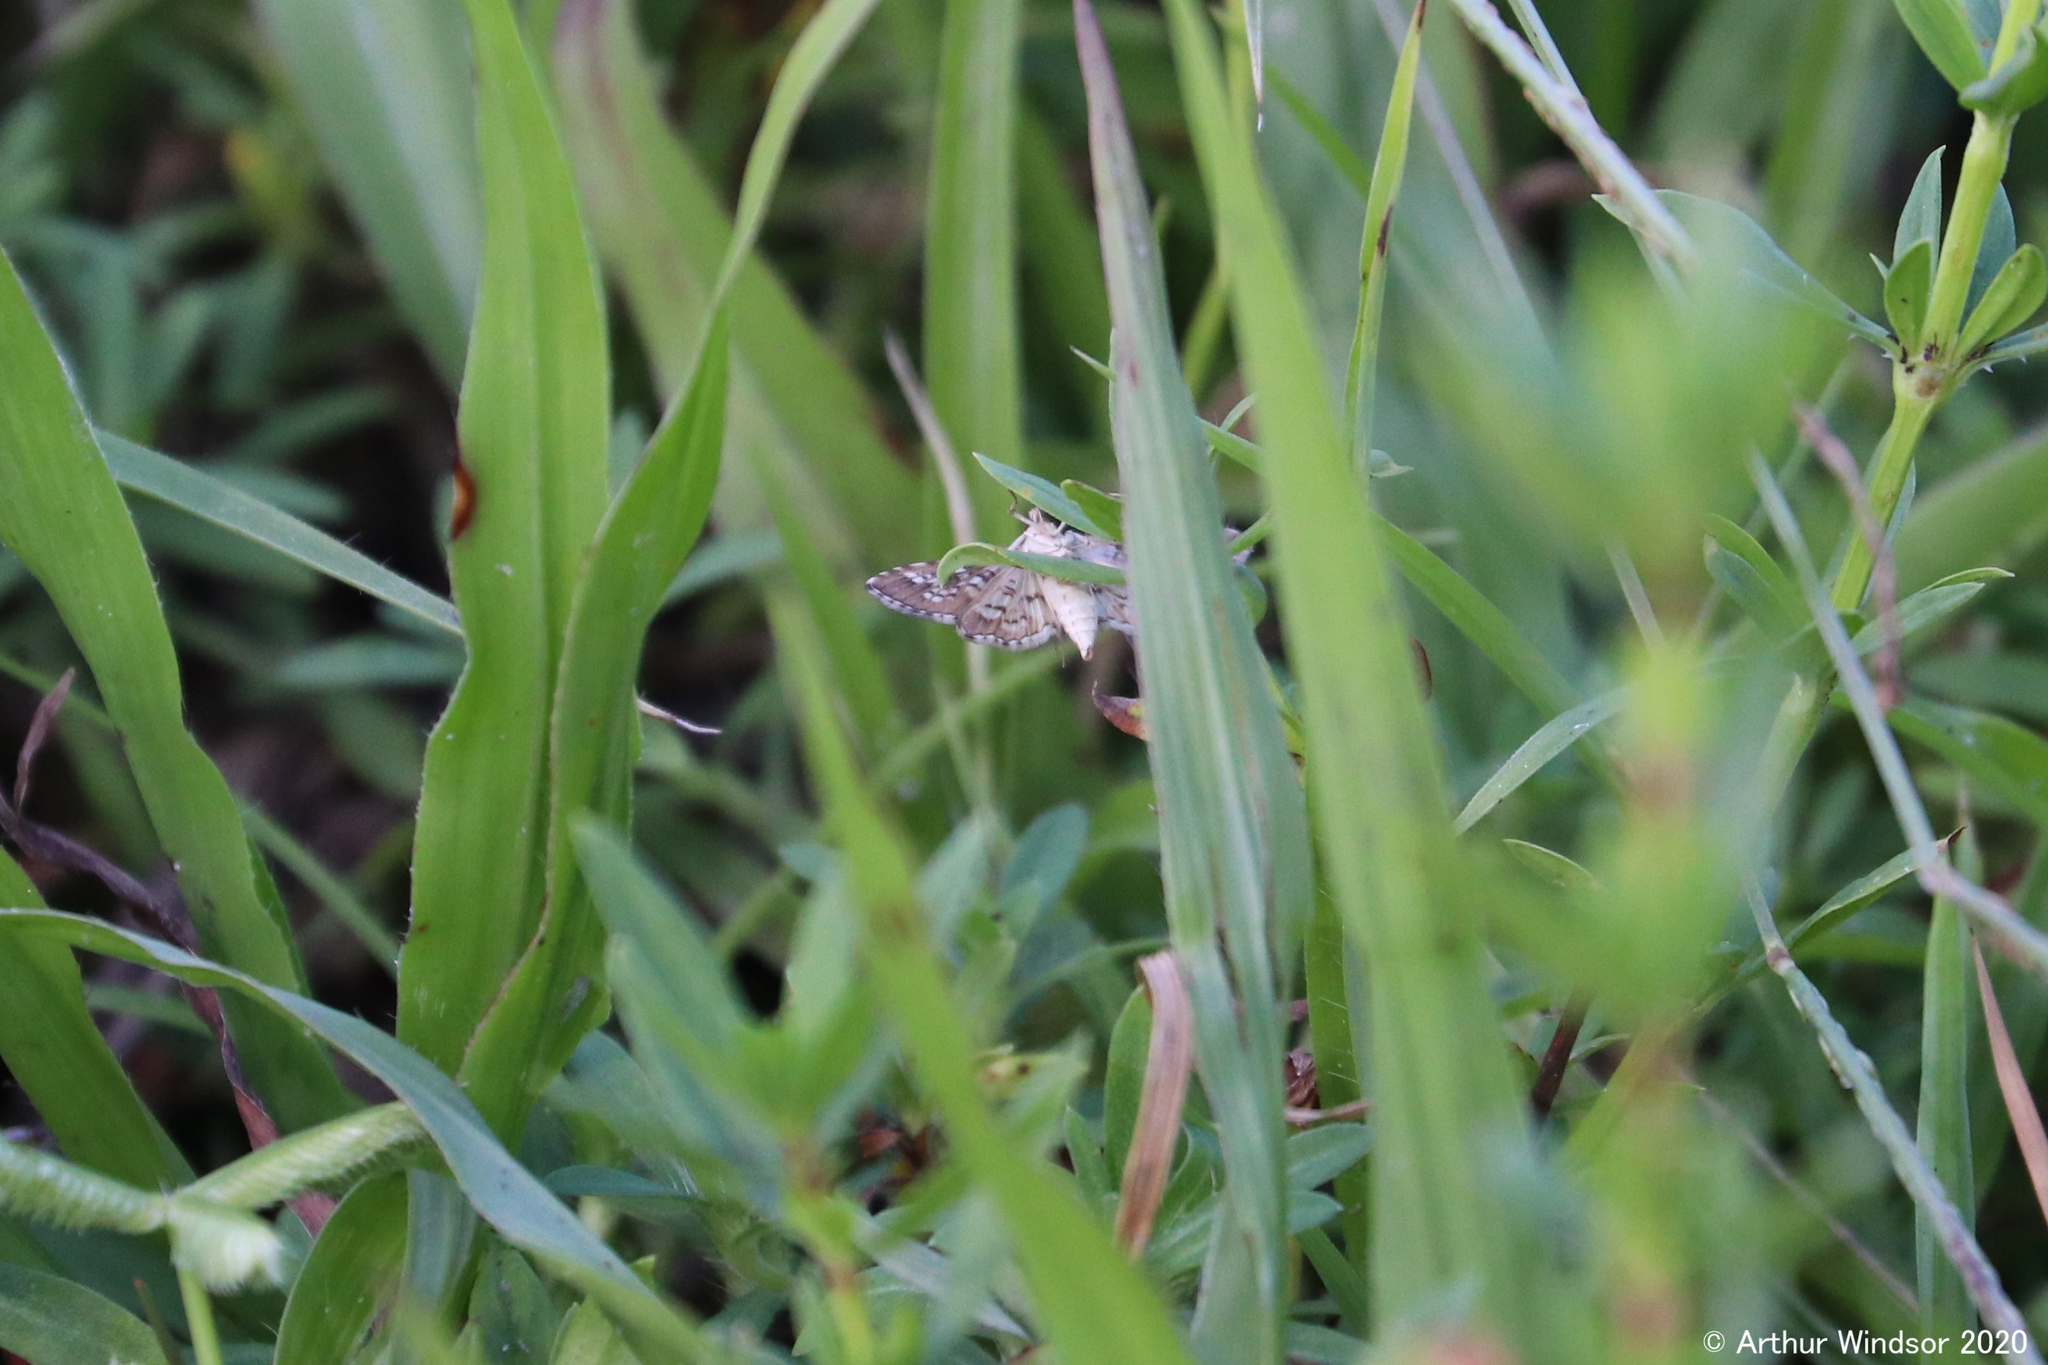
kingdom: Animalia
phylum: Arthropoda
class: Insecta
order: Lepidoptera
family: Crambidae
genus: Samea
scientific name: Samea ecclesialis
